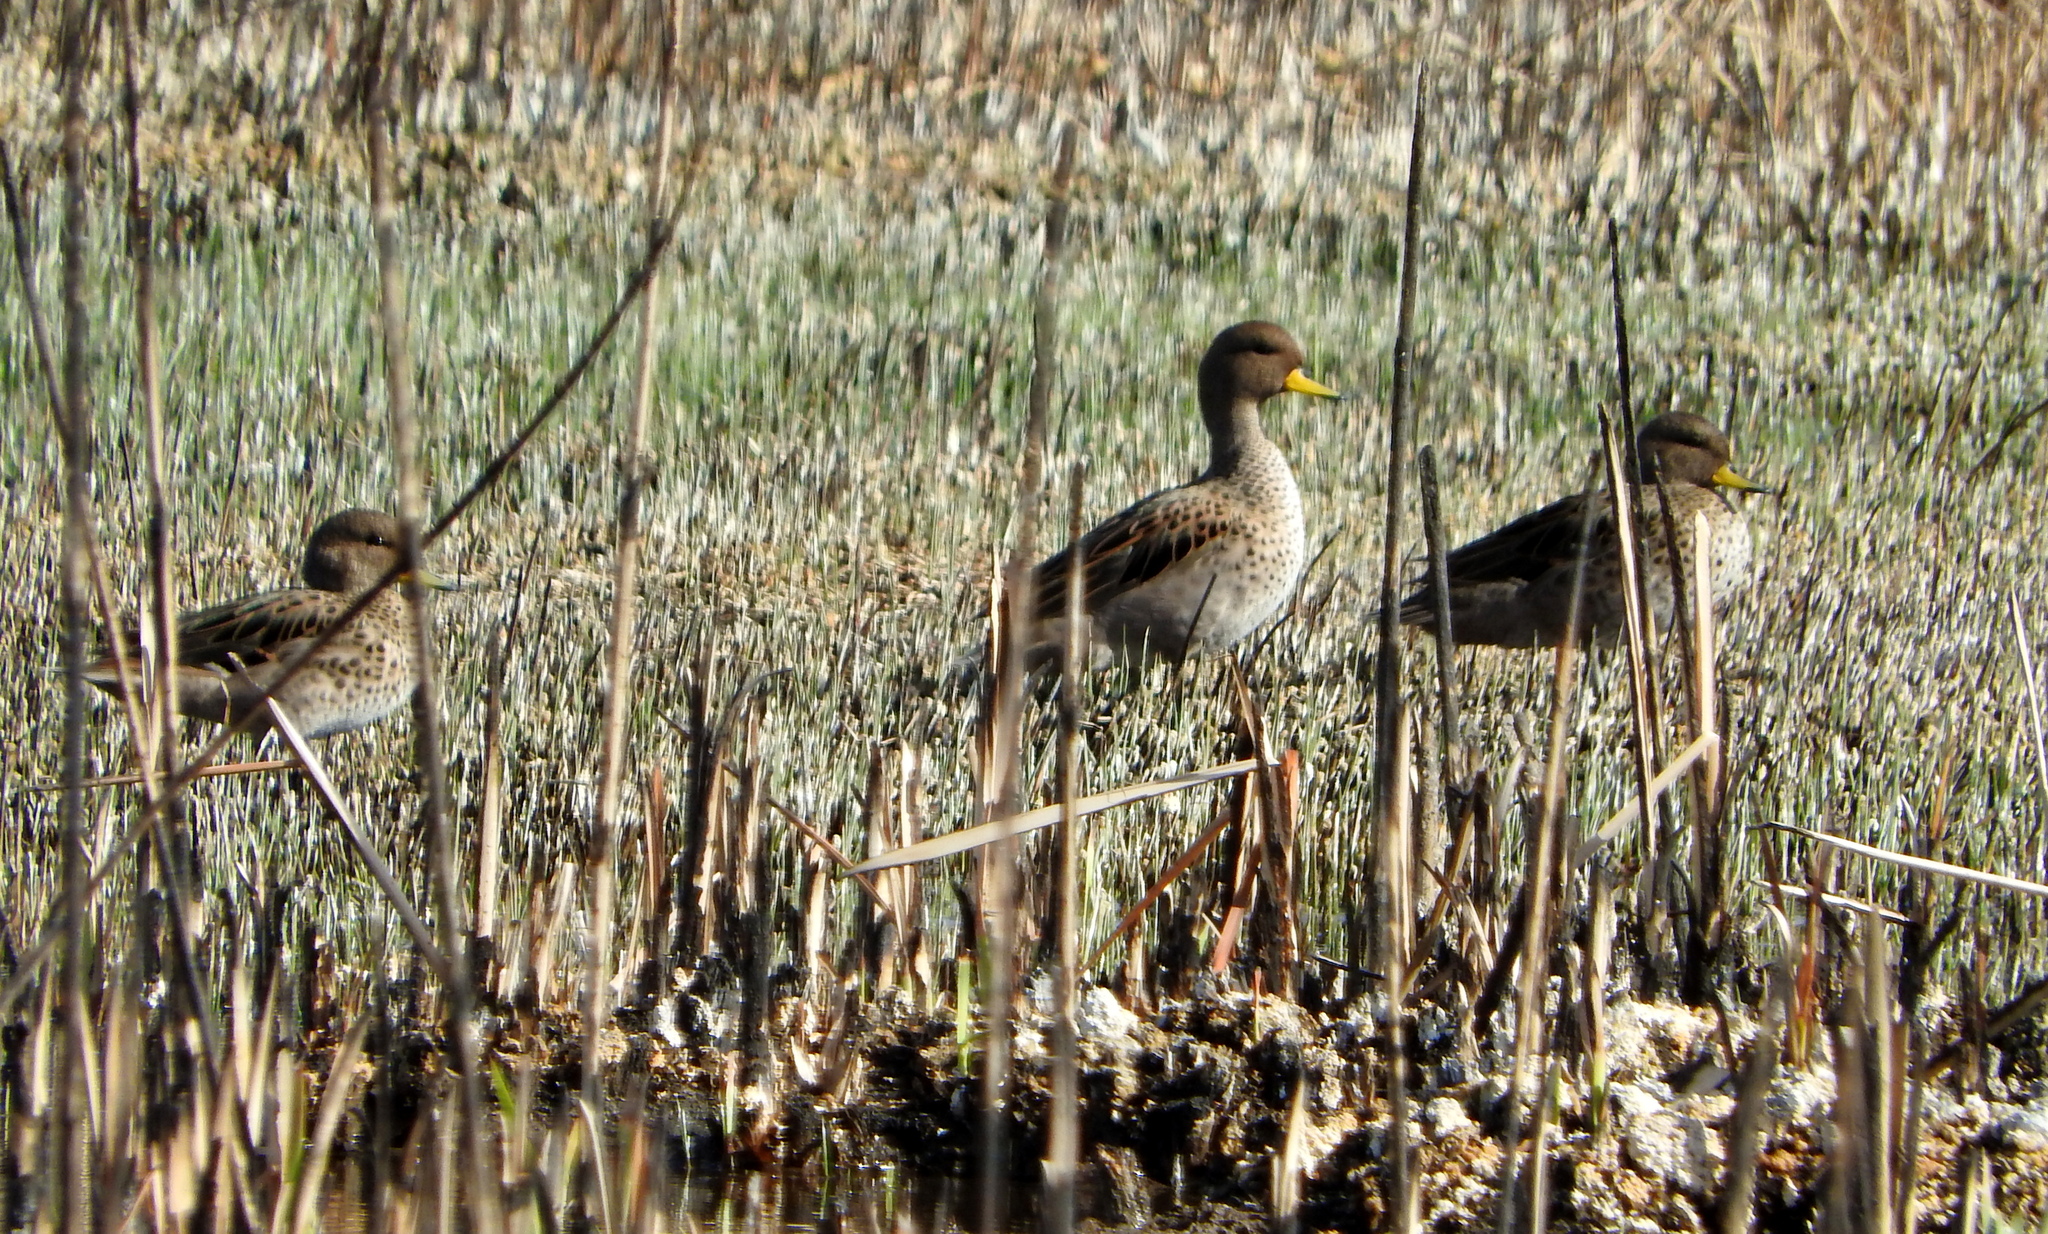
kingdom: Animalia
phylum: Chordata
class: Aves
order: Anseriformes
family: Anatidae
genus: Anas
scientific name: Anas flavirostris
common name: Yellow-billed teal
